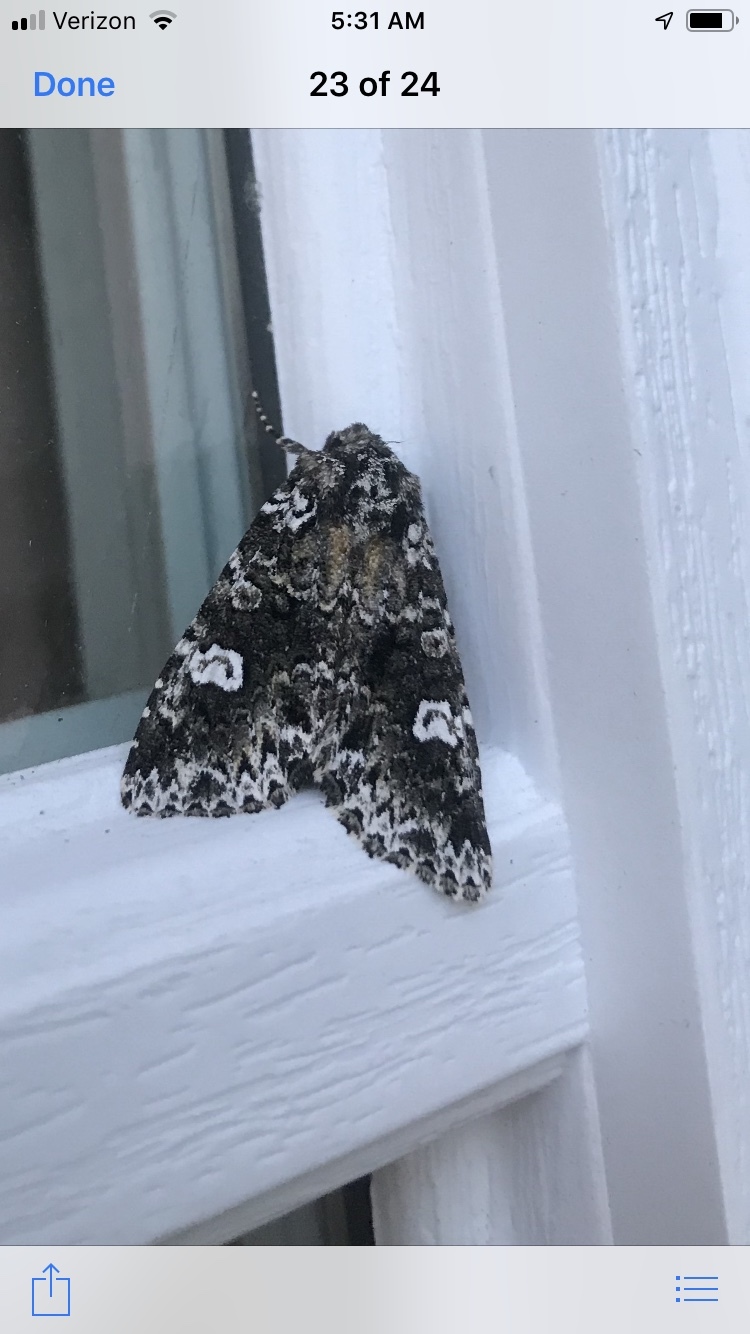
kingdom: Animalia
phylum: Arthropoda
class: Insecta
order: Lepidoptera
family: Noctuidae
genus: Melanchra
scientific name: Melanchra adjuncta
